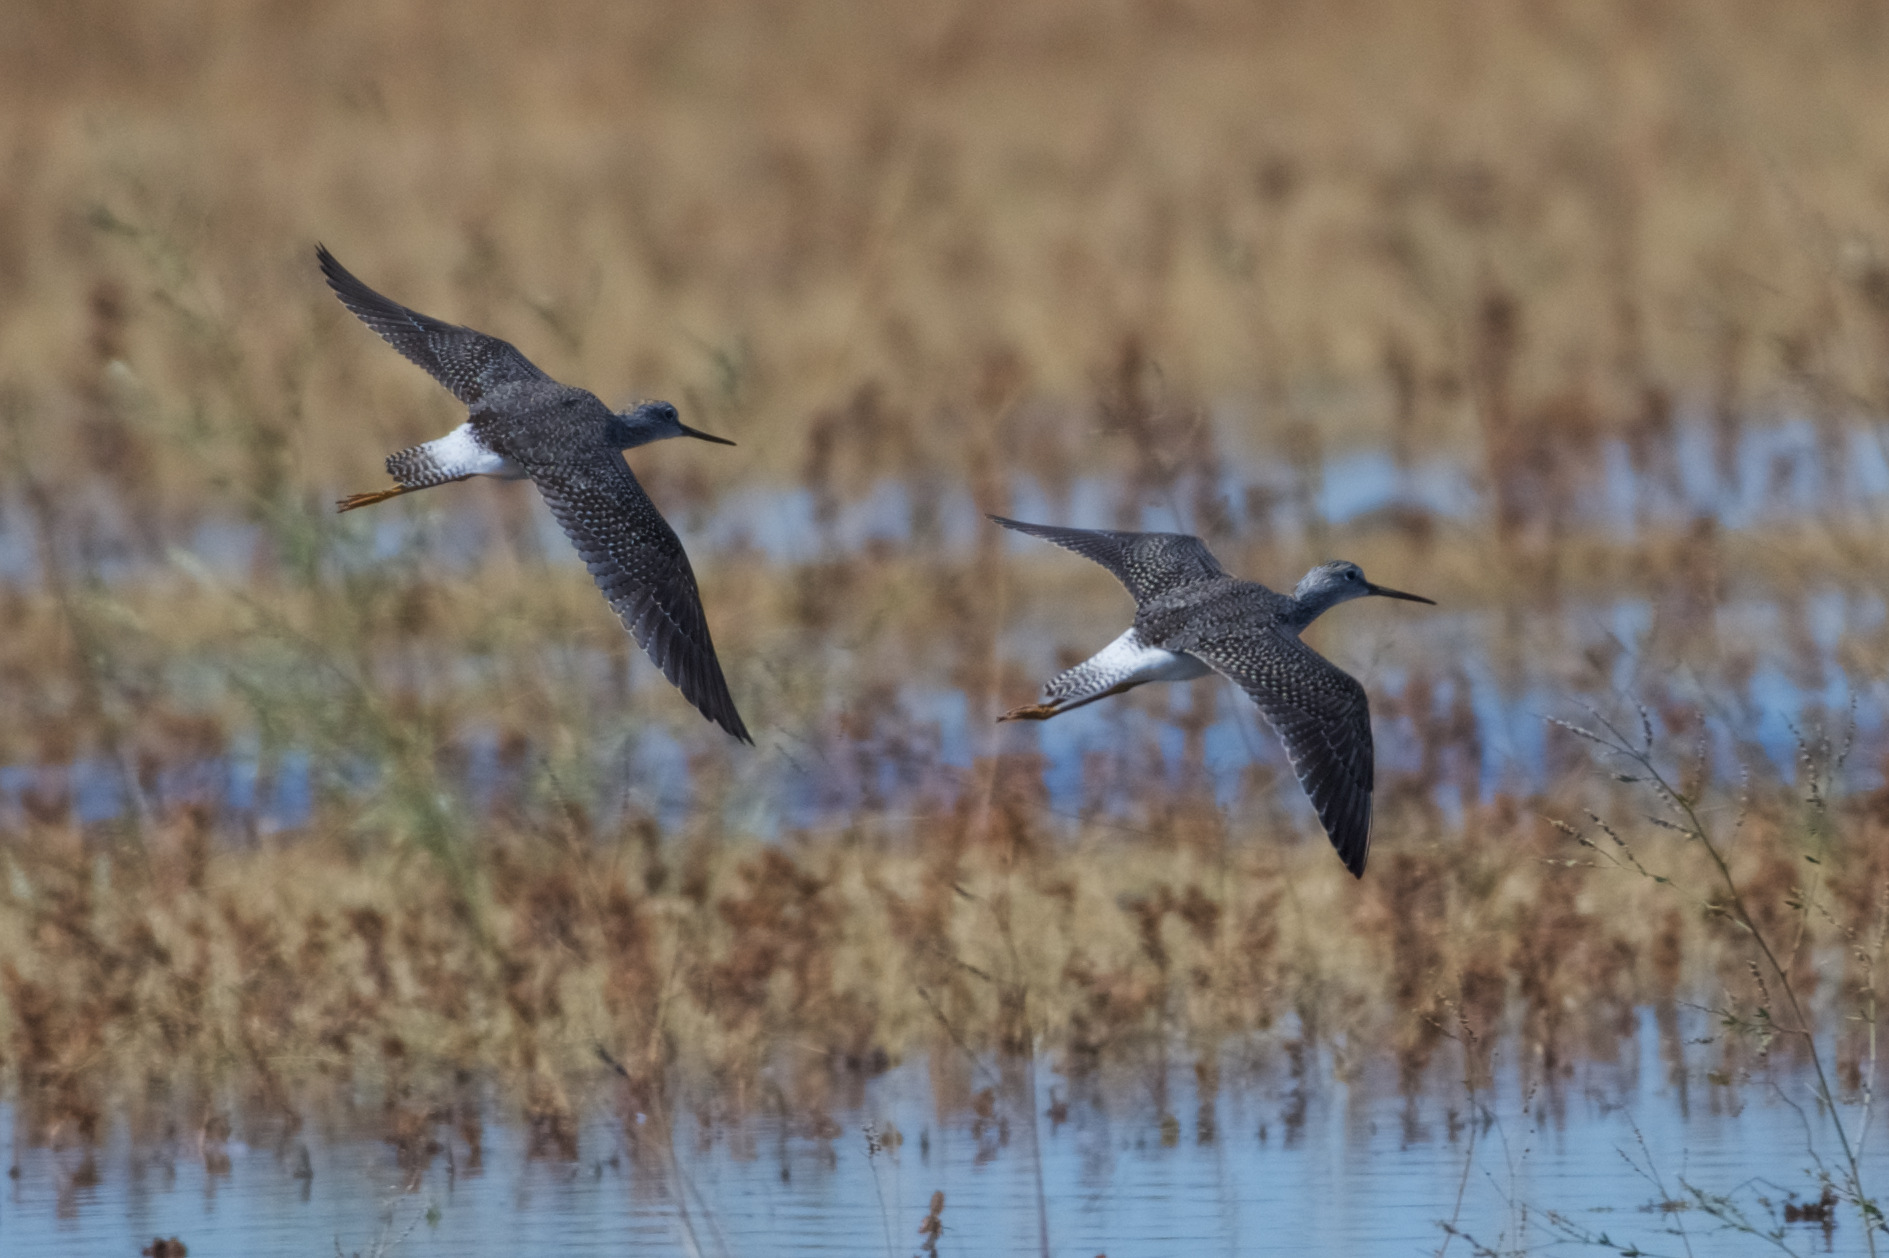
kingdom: Animalia
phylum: Chordata
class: Aves
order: Charadriiformes
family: Scolopacidae
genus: Tringa
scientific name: Tringa melanoleuca
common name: Greater yellowlegs
